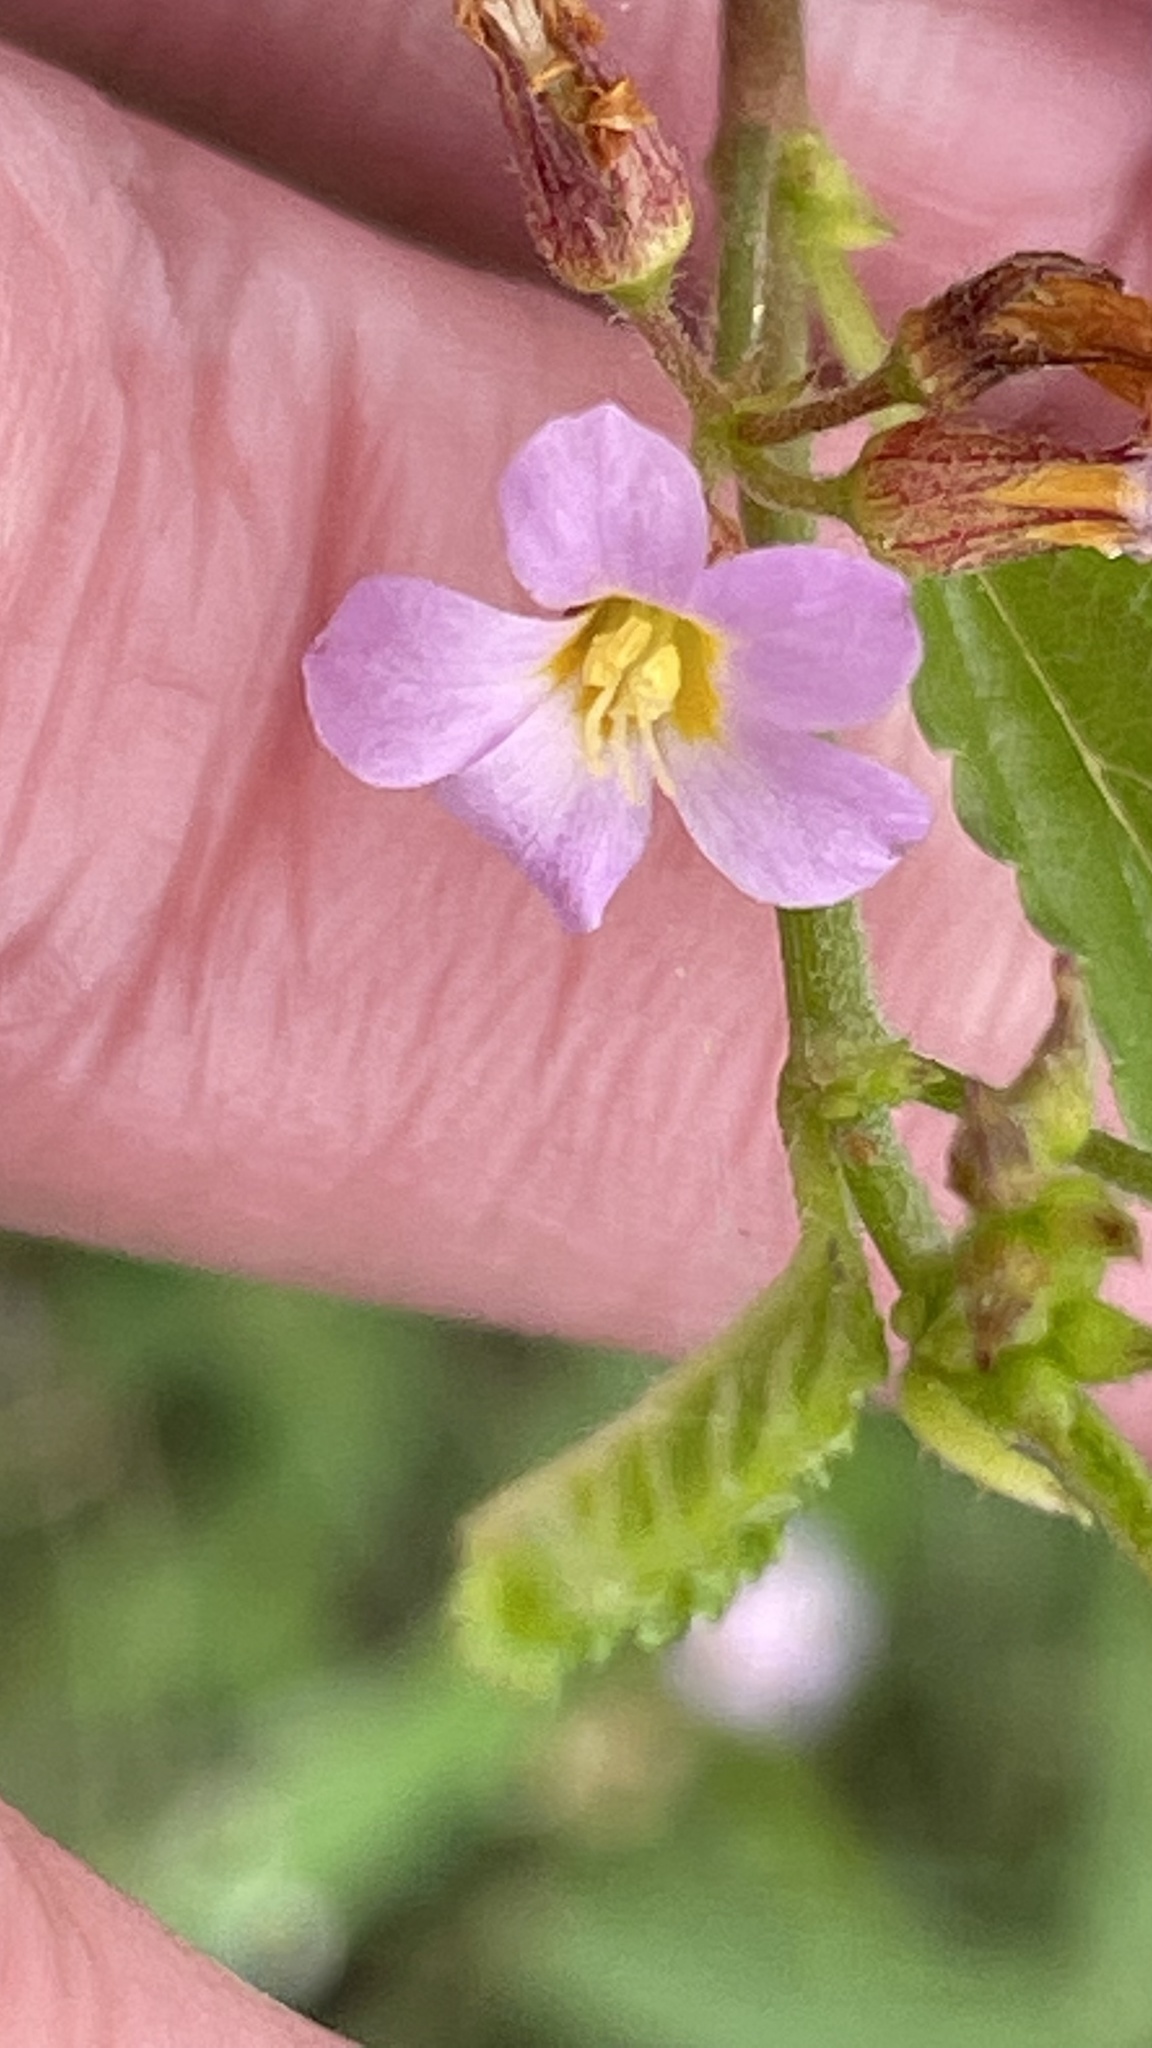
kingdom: Plantae
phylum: Tracheophyta
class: Magnoliopsida
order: Malvales
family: Malvaceae
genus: Melochia
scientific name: Melochia pyramidata
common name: Pyramidflower
